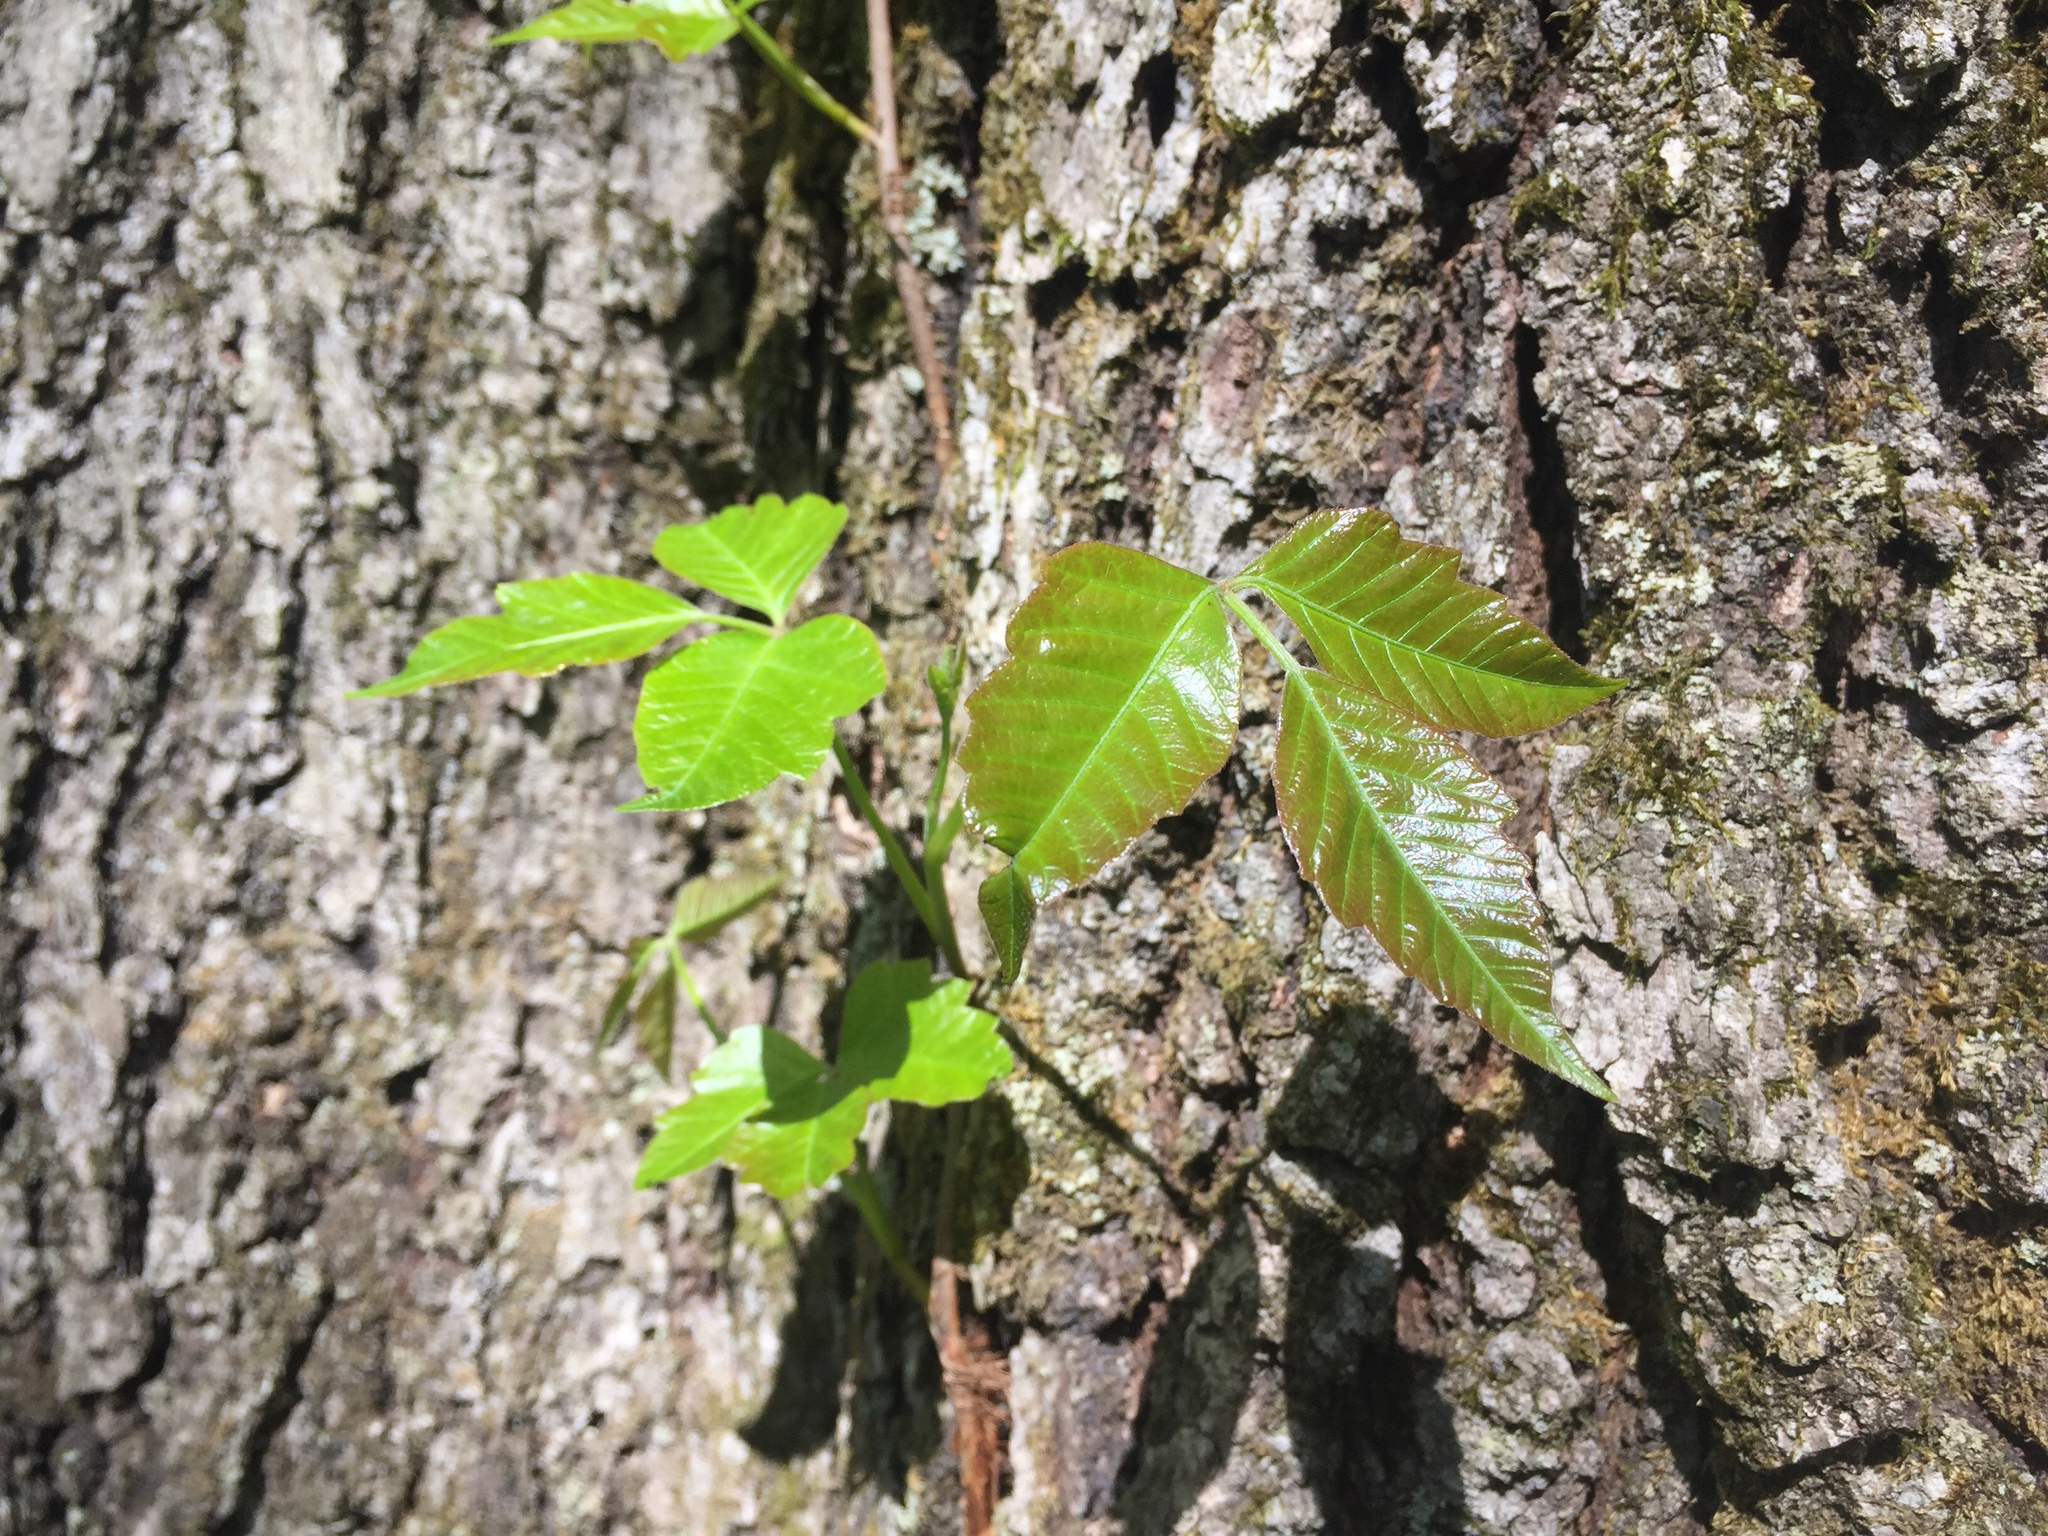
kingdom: Plantae
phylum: Tracheophyta
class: Magnoliopsida
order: Sapindales
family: Anacardiaceae
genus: Toxicodendron
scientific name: Toxicodendron radicans
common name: Poison ivy
